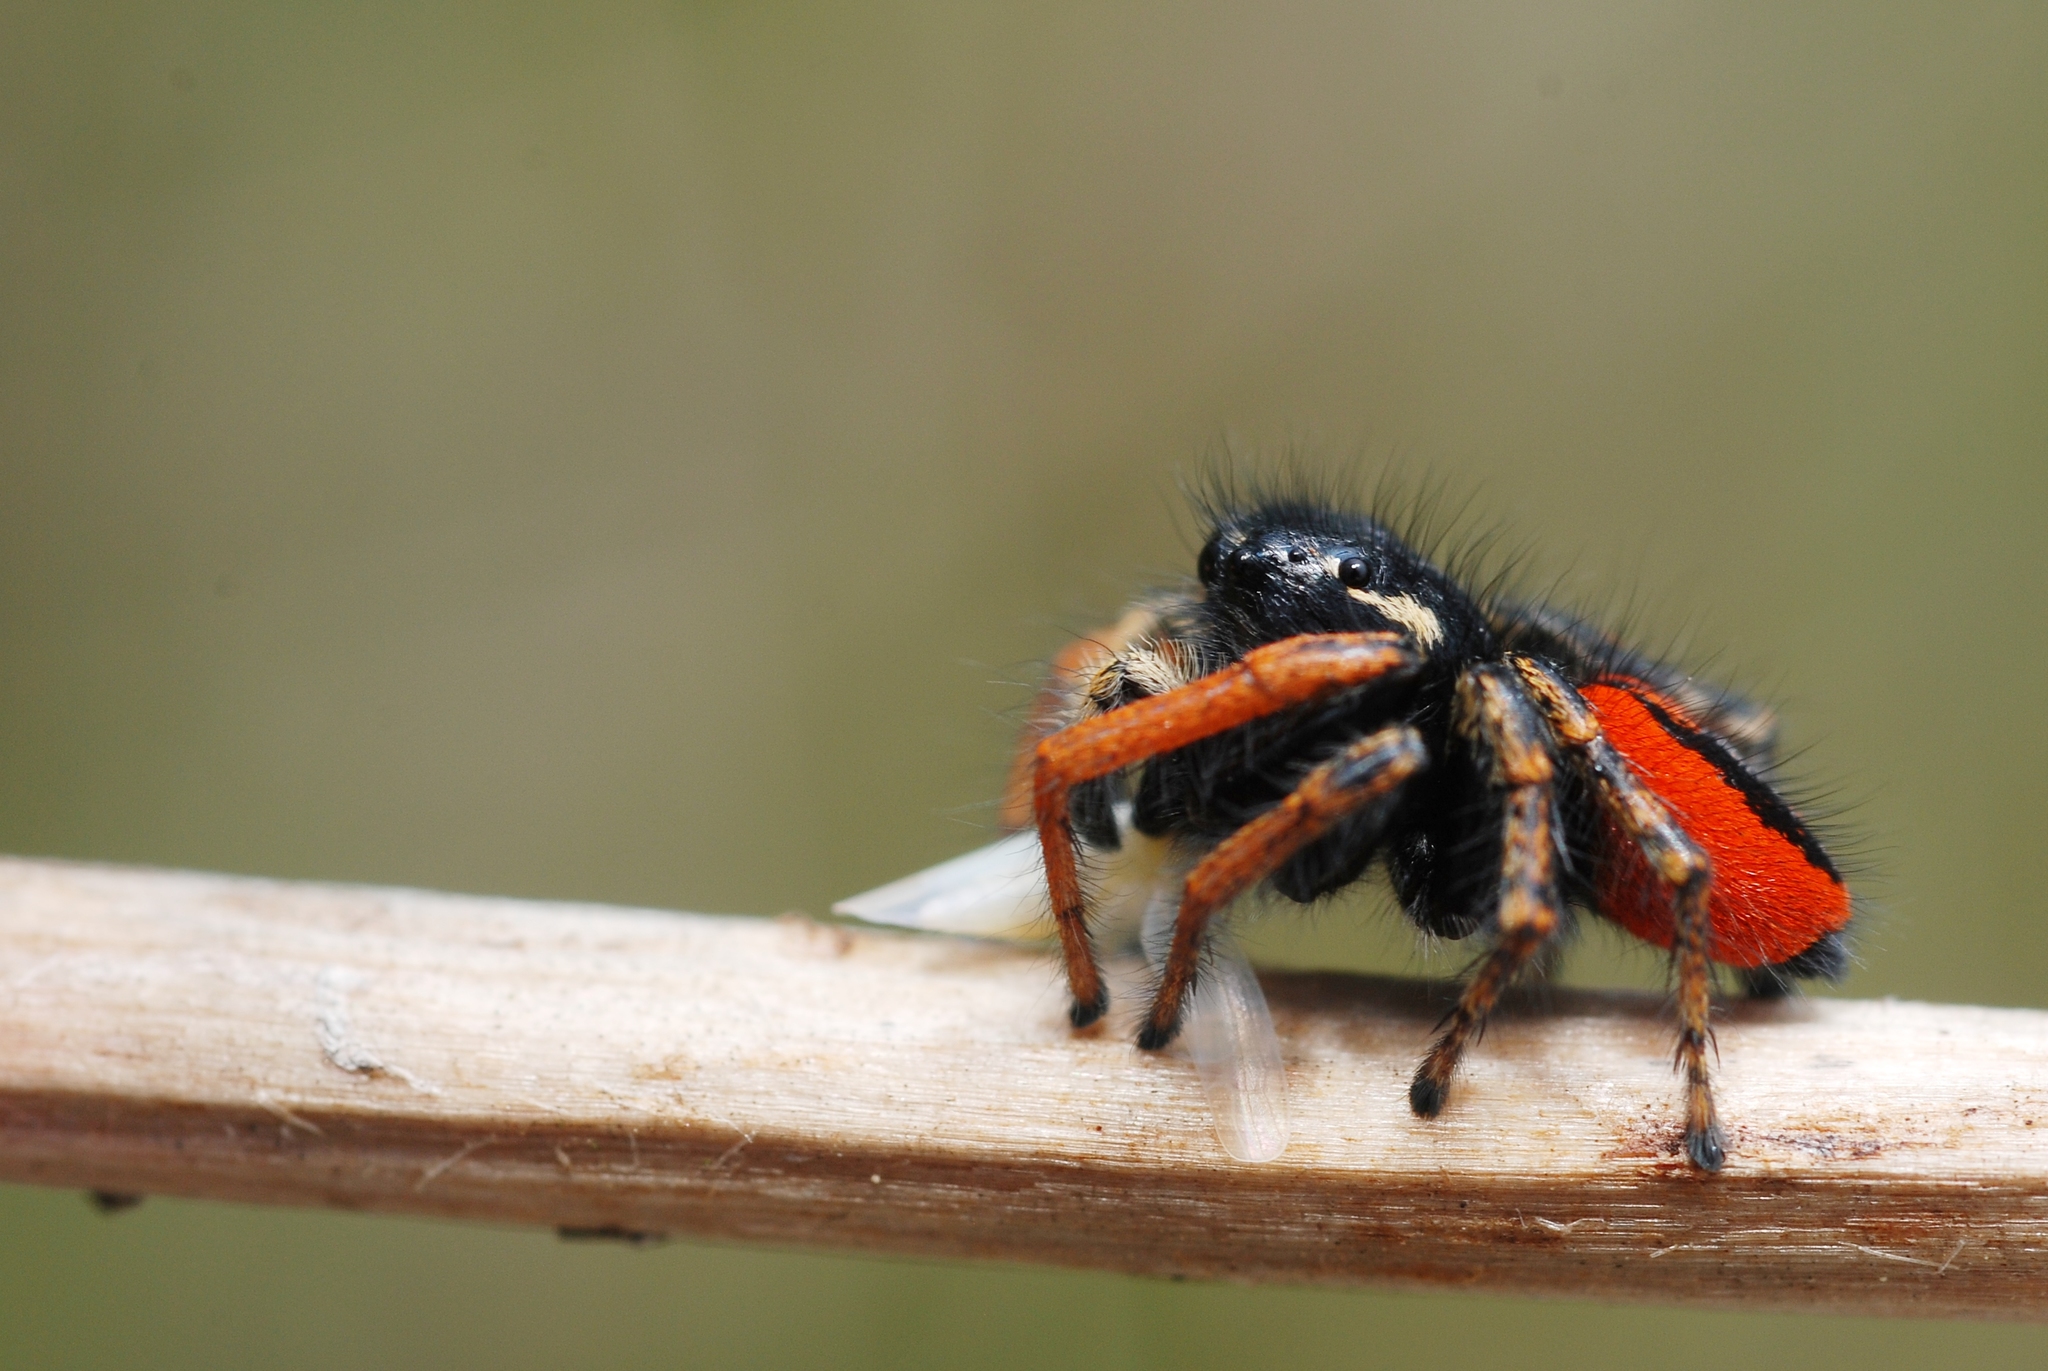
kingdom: Animalia
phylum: Arthropoda
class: Arachnida
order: Araneae
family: Salticidae
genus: Philaeus
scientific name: Philaeus chrysops
